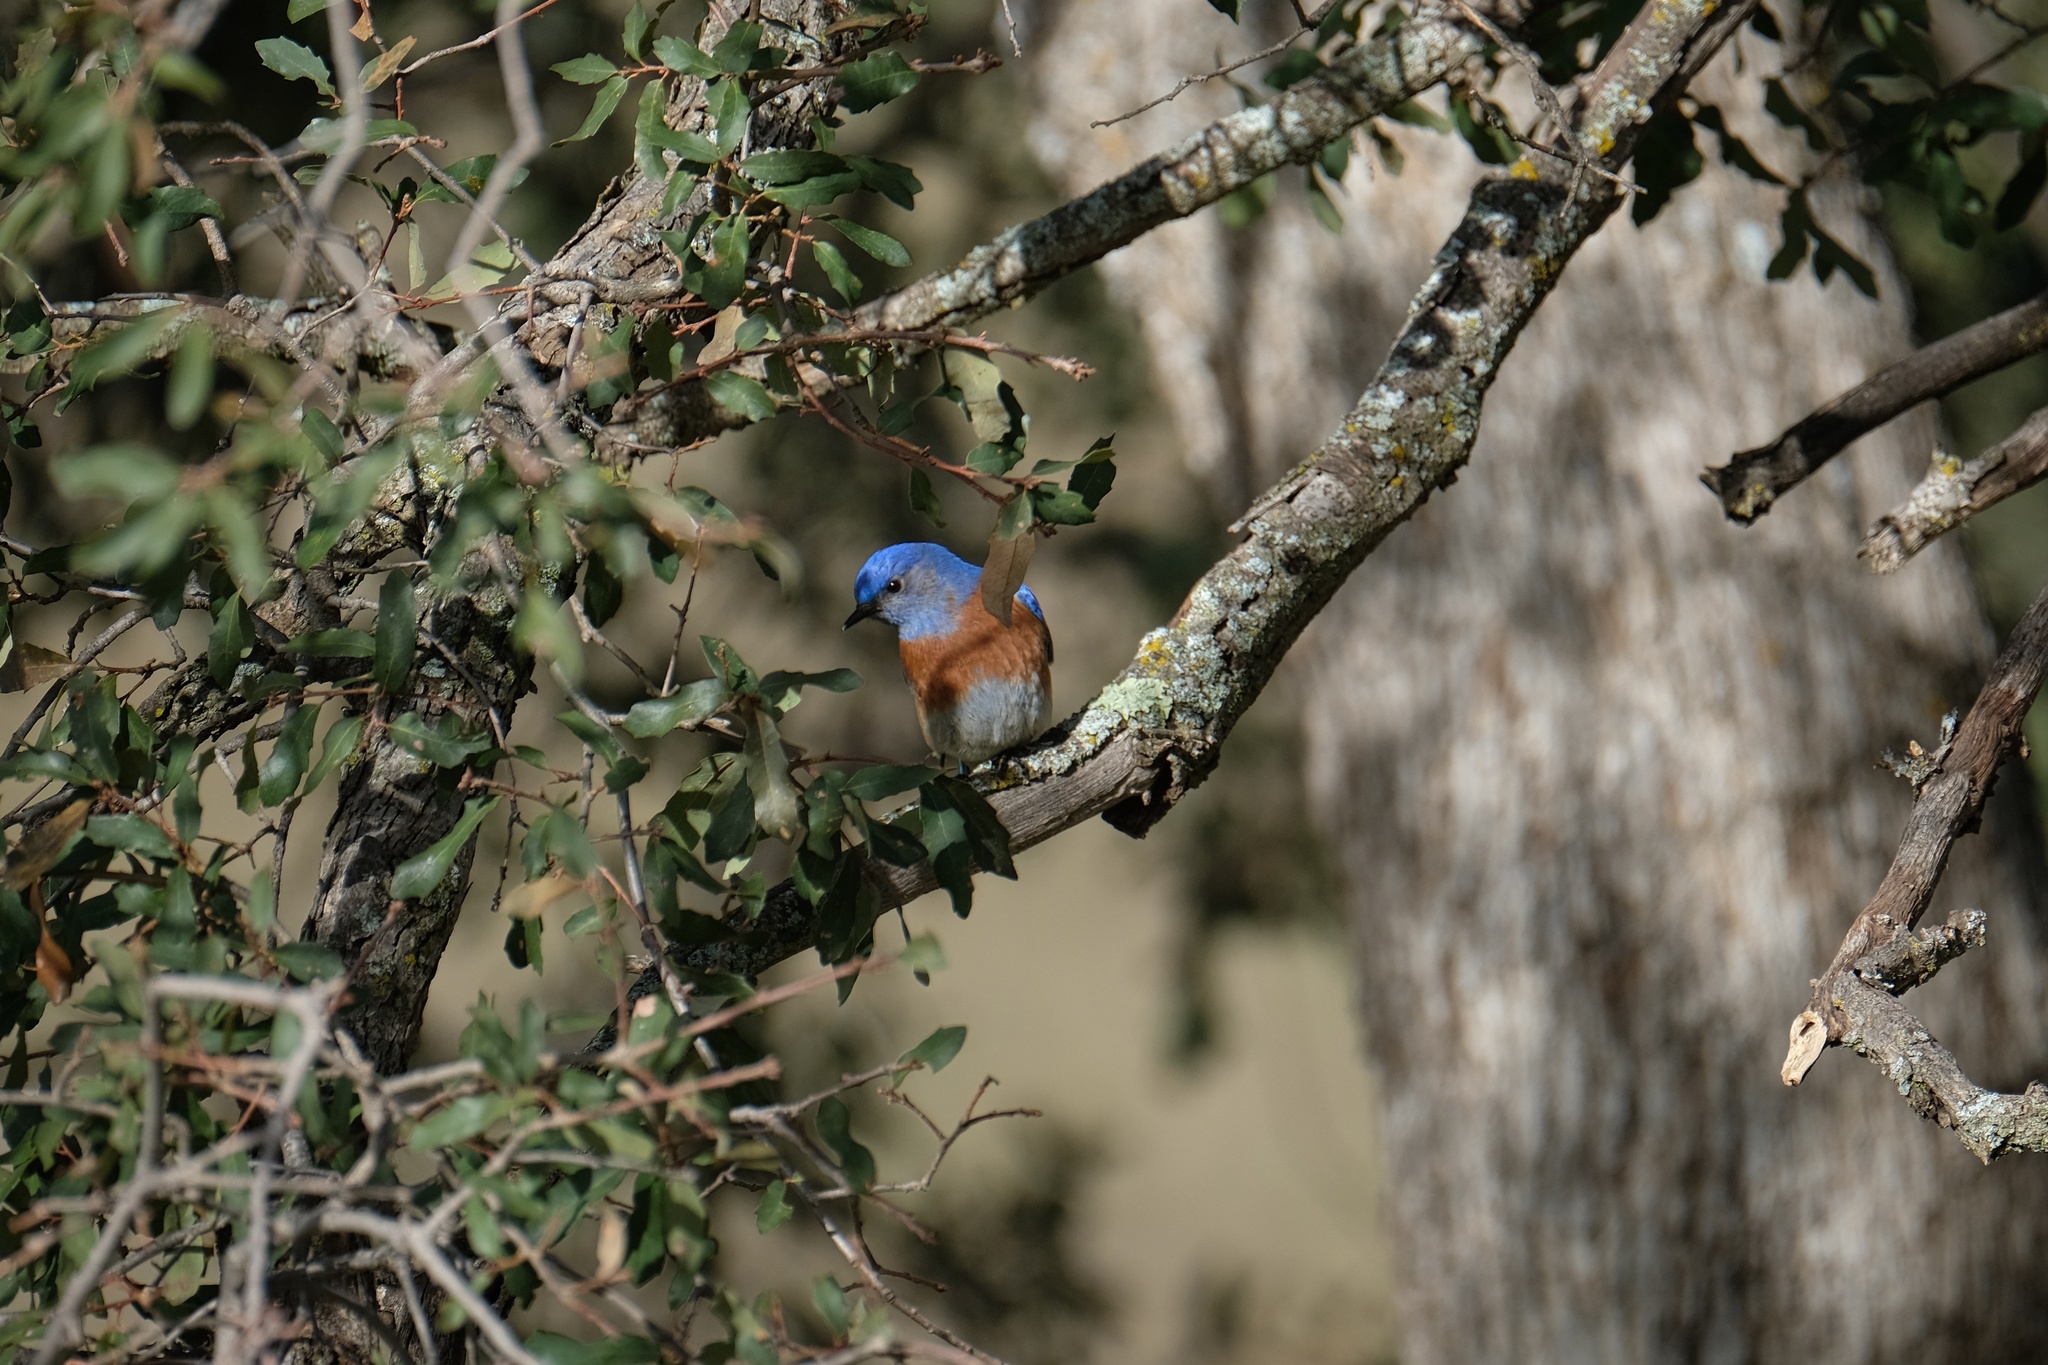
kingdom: Animalia
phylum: Chordata
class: Aves
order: Passeriformes
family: Turdidae
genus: Sialia
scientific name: Sialia mexicana
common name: Western bluebird
